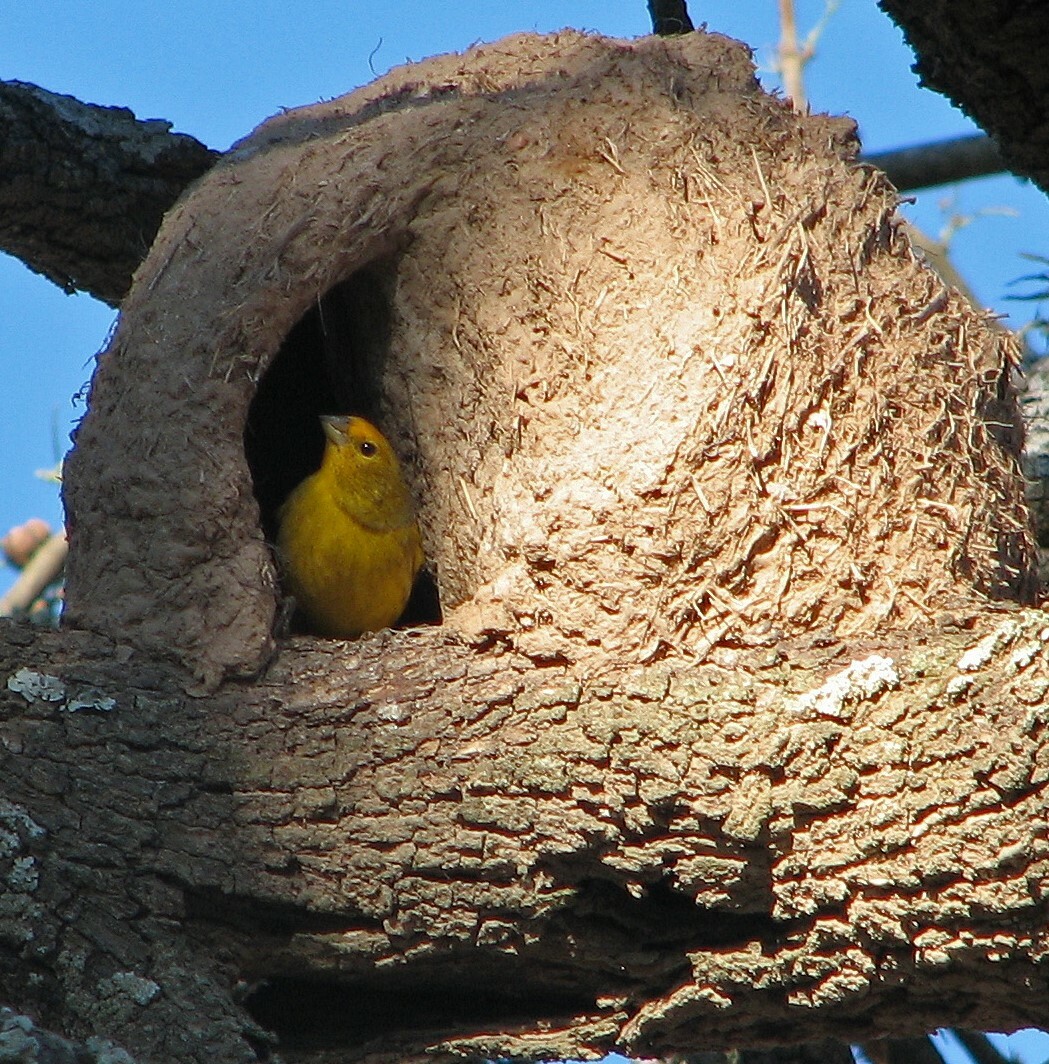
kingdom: Animalia
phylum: Chordata
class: Aves
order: Passeriformes
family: Thraupidae
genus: Sicalis
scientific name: Sicalis flaveola
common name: Saffron finch
